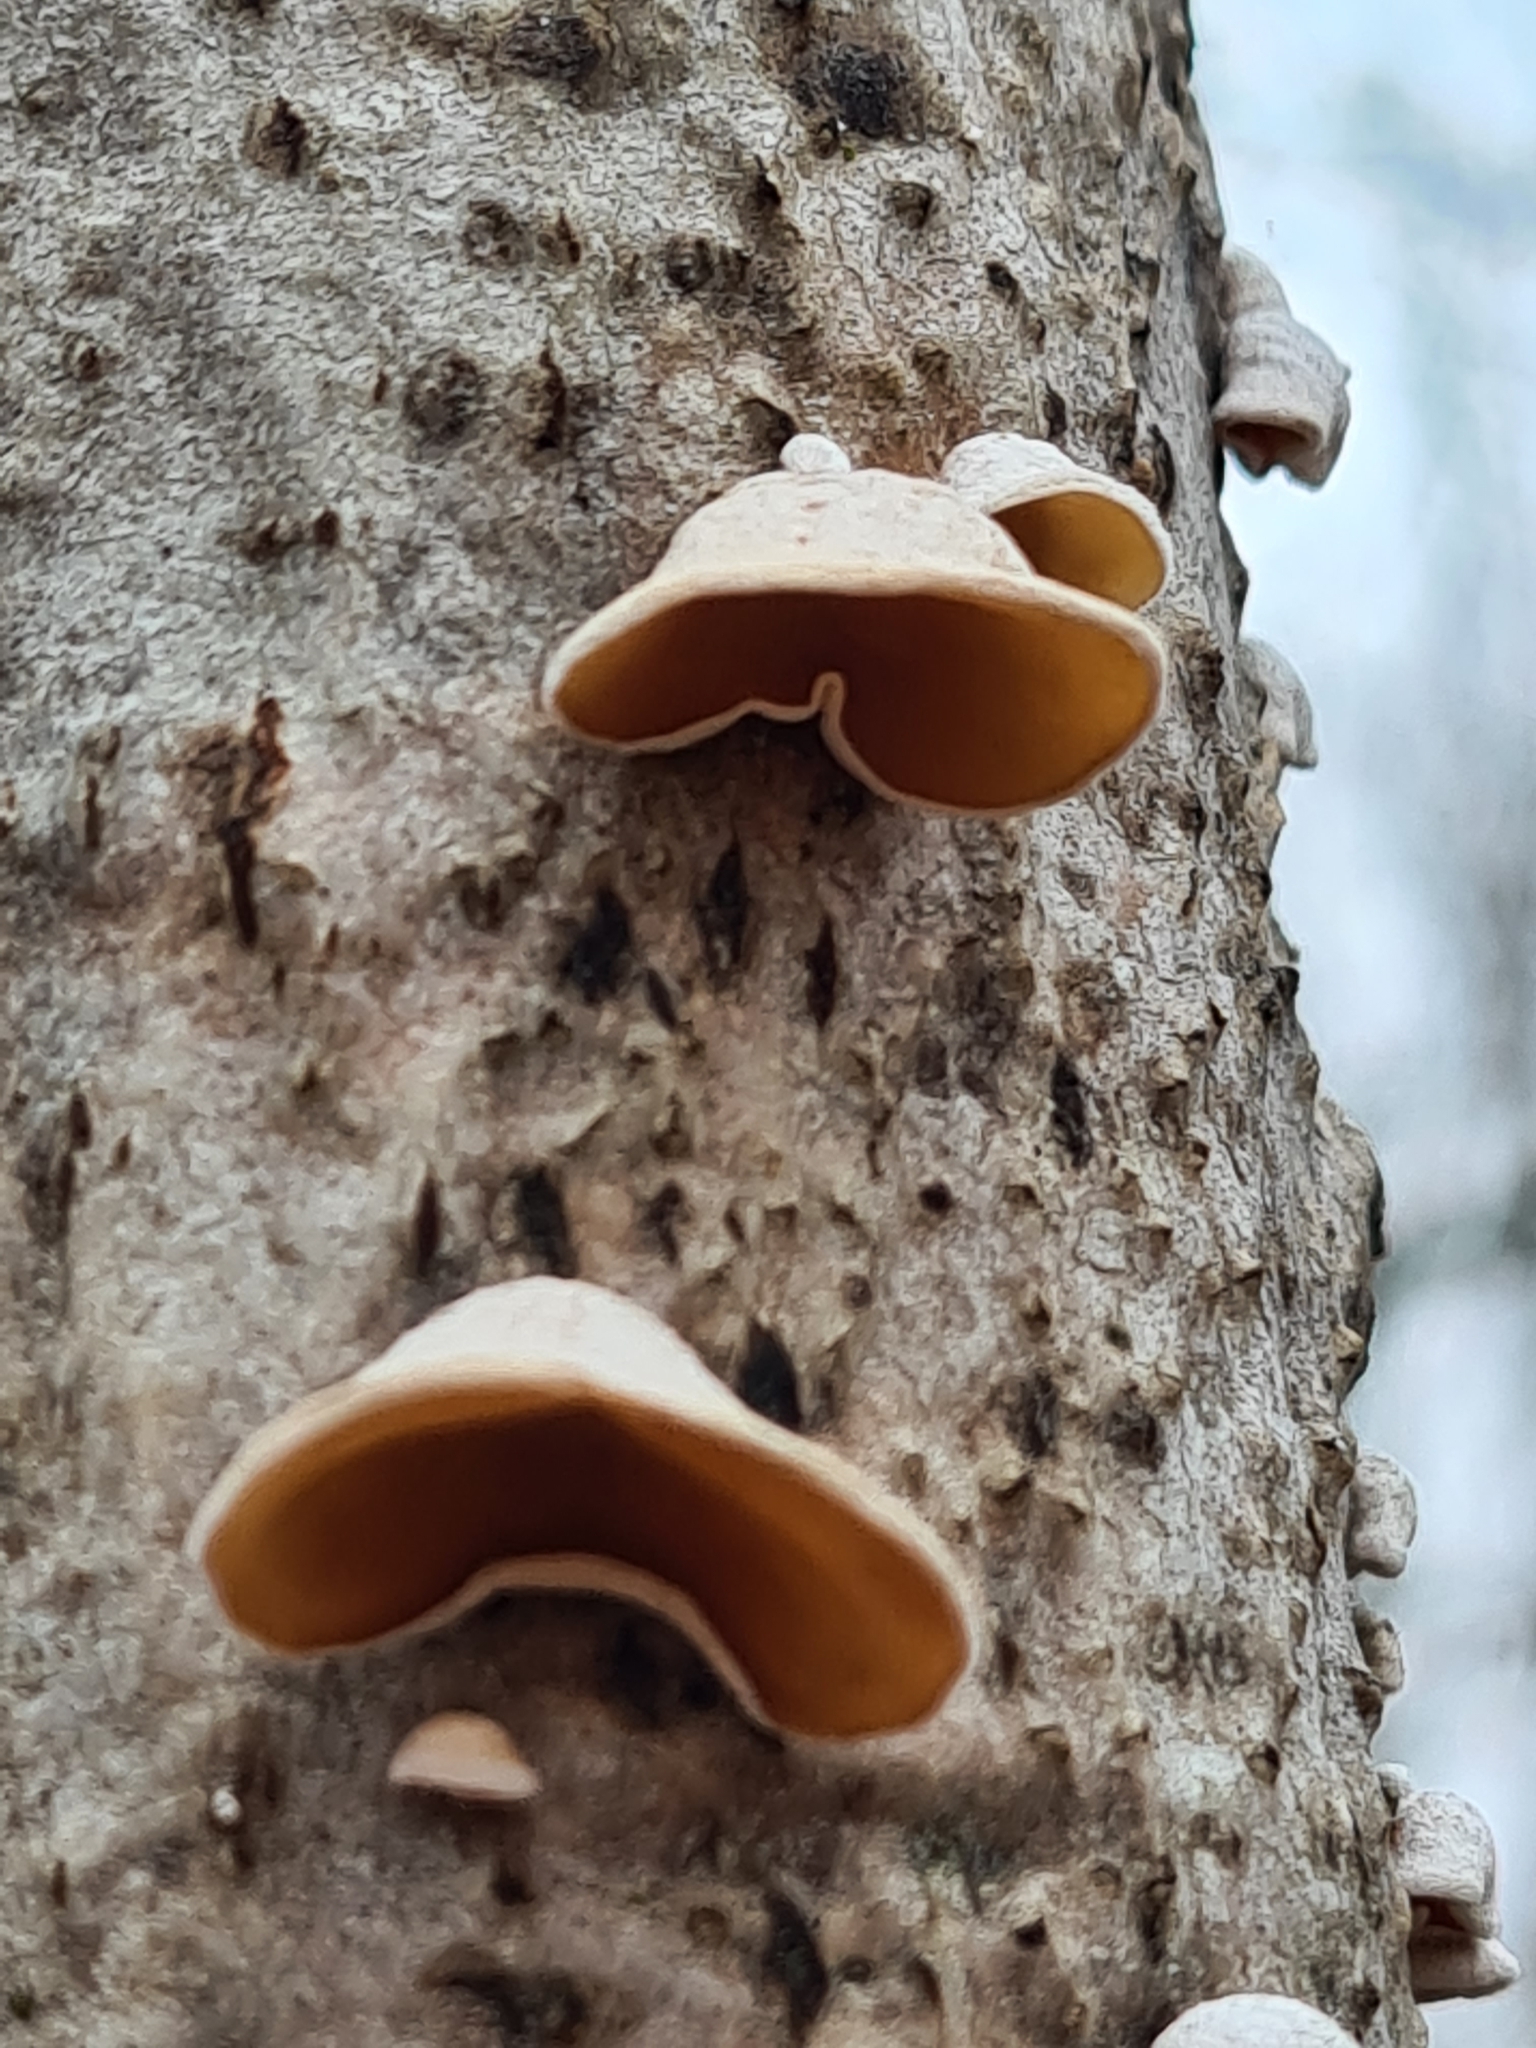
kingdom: Fungi
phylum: Basidiomycota
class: Agaricomycetes
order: Agaricales
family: Schizophyllaceae
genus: Schizophyllum
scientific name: Schizophyllum amplum
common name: Poplar bells
